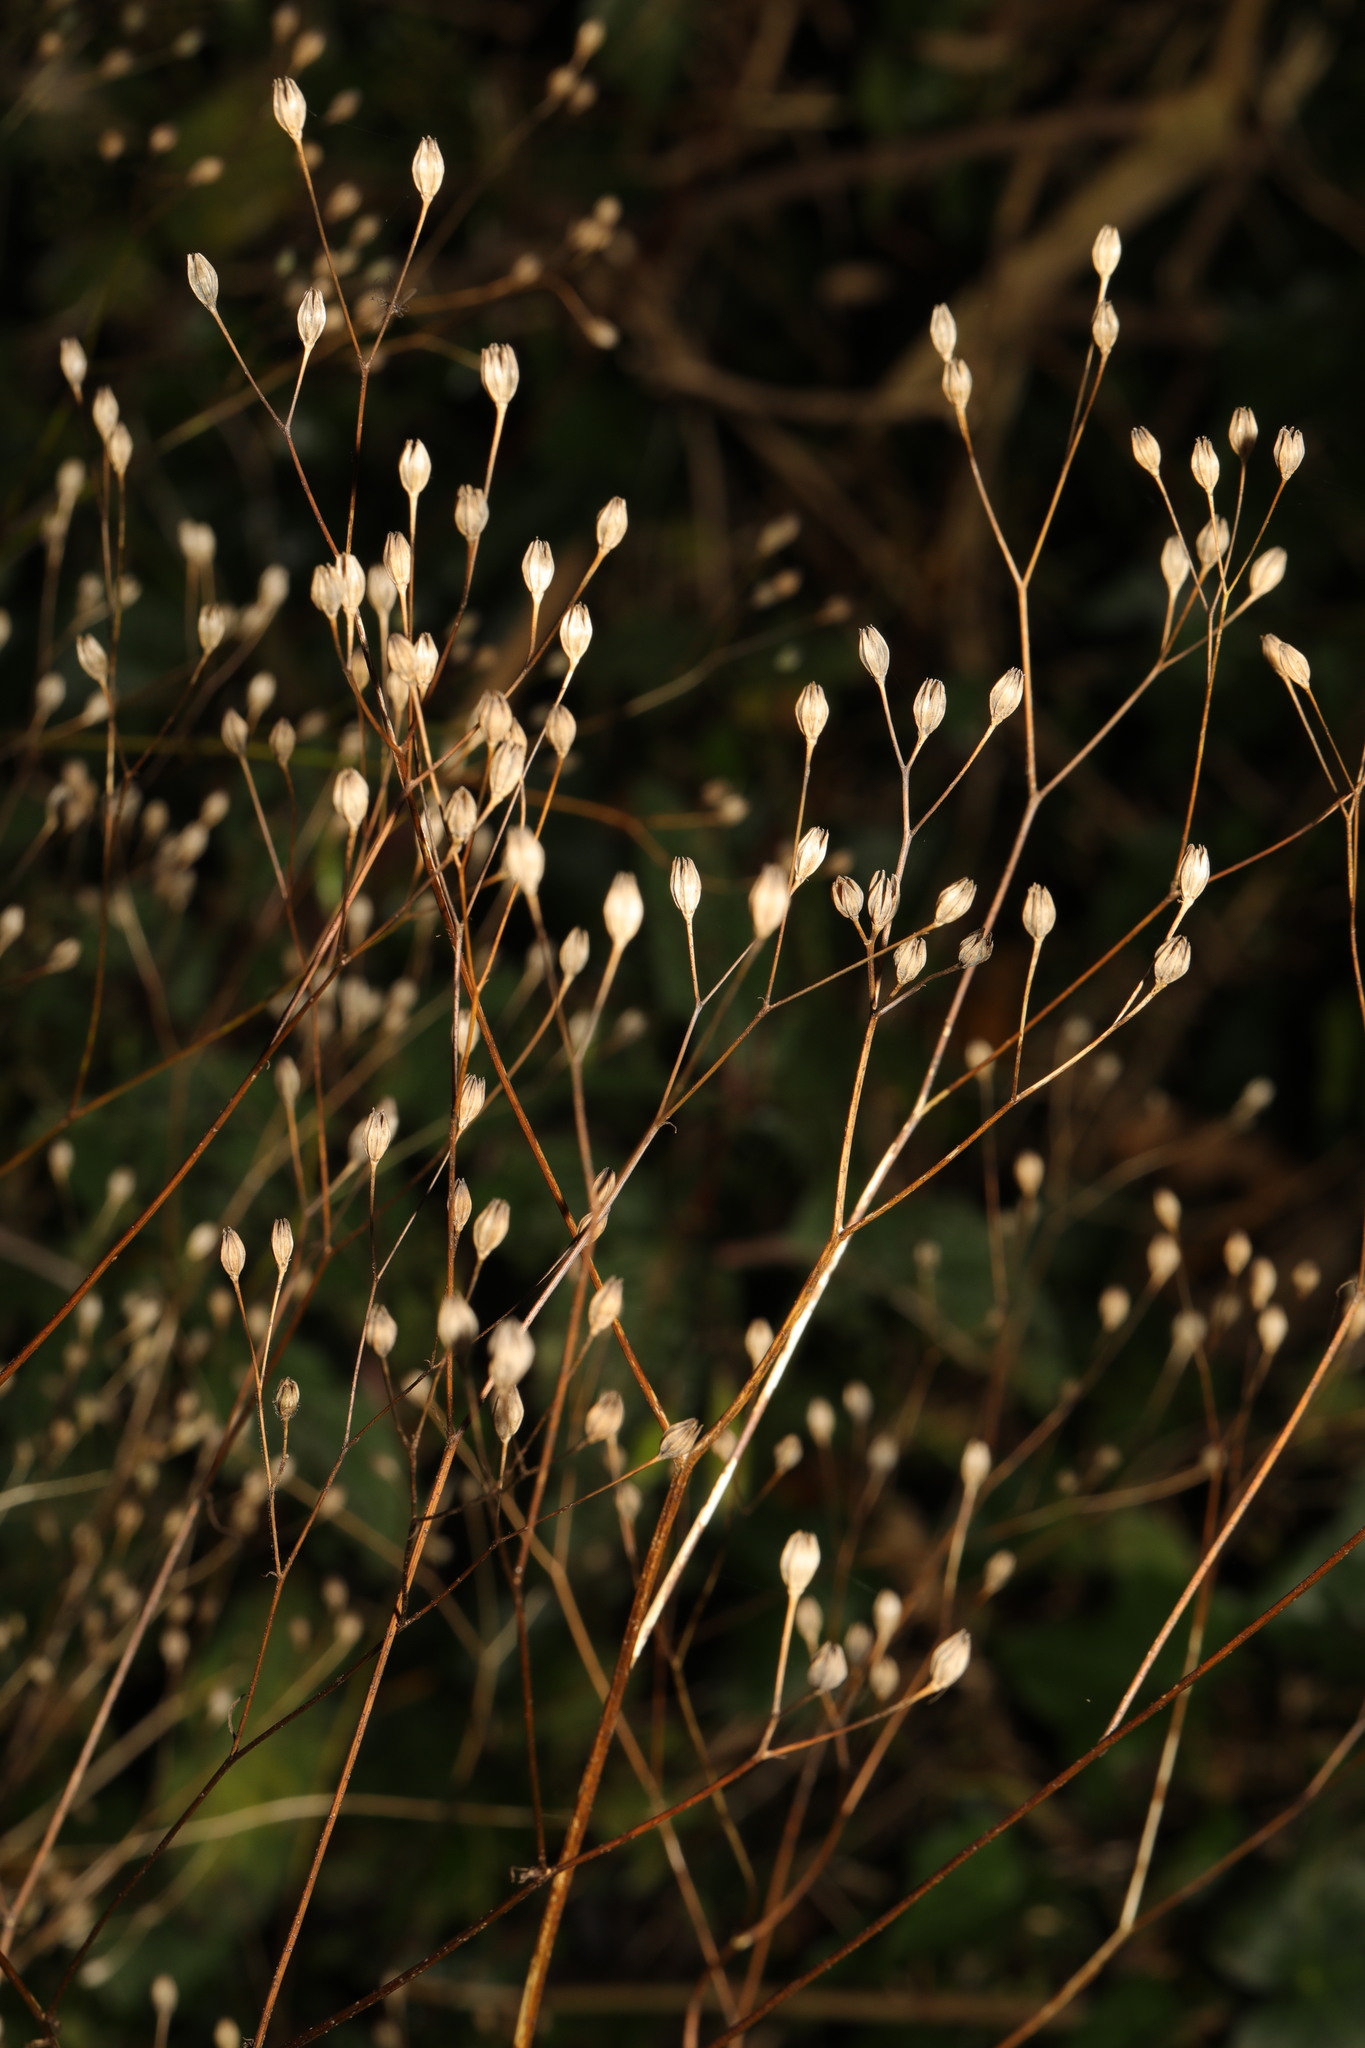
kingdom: Plantae
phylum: Tracheophyta
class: Magnoliopsida
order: Asterales
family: Asteraceae
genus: Lapsana
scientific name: Lapsana communis
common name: Nipplewort
